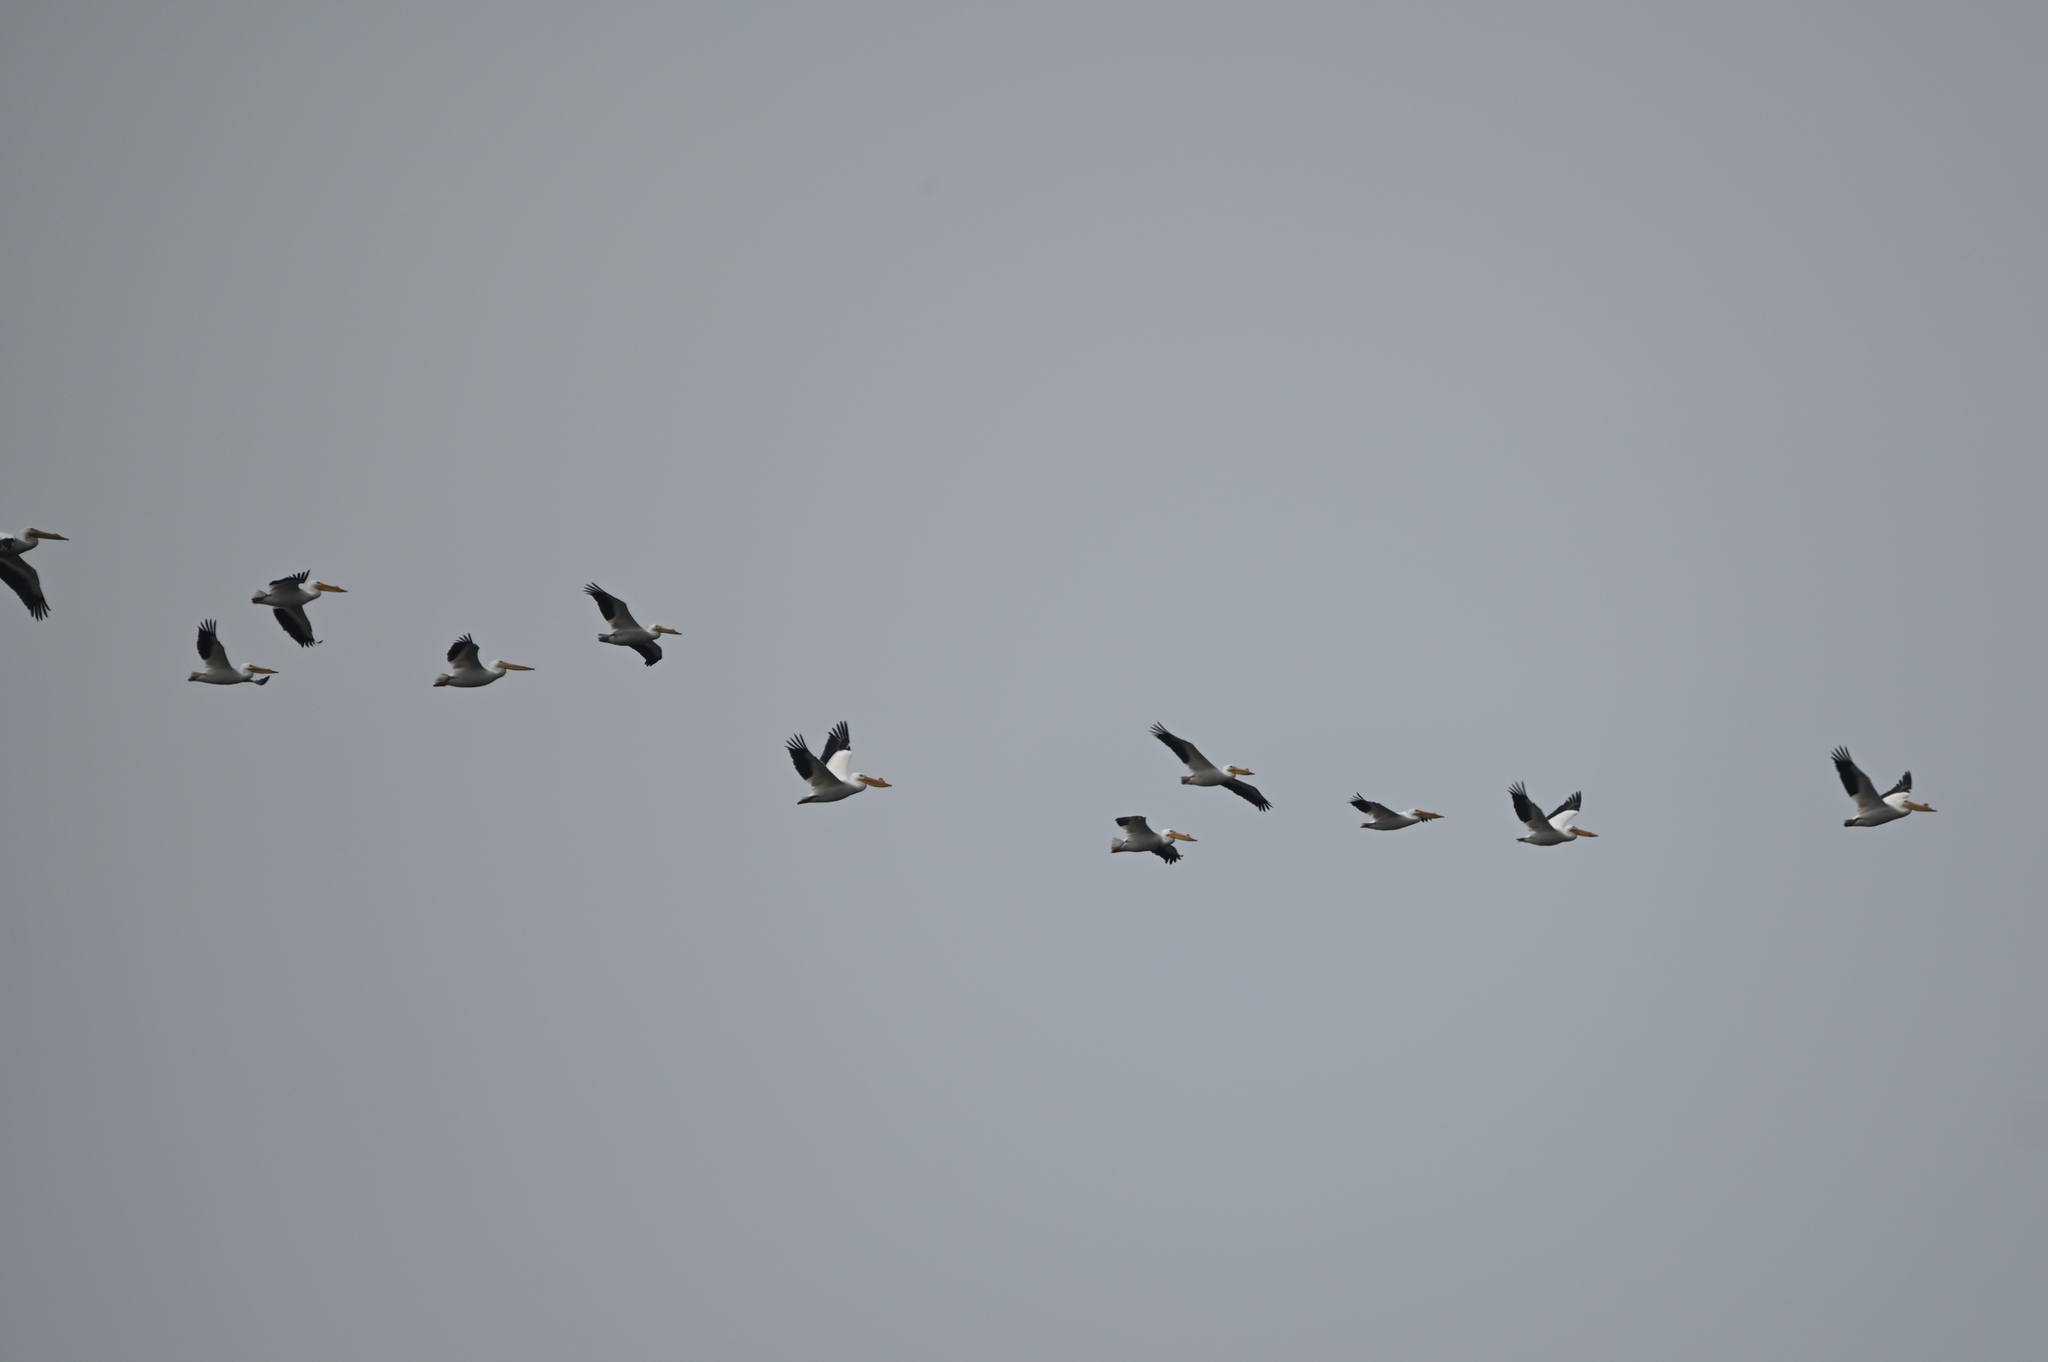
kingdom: Animalia
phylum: Chordata
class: Aves
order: Pelecaniformes
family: Pelecanidae
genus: Pelecanus
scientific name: Pelecanus erythrorhynchos
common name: American white pelican
